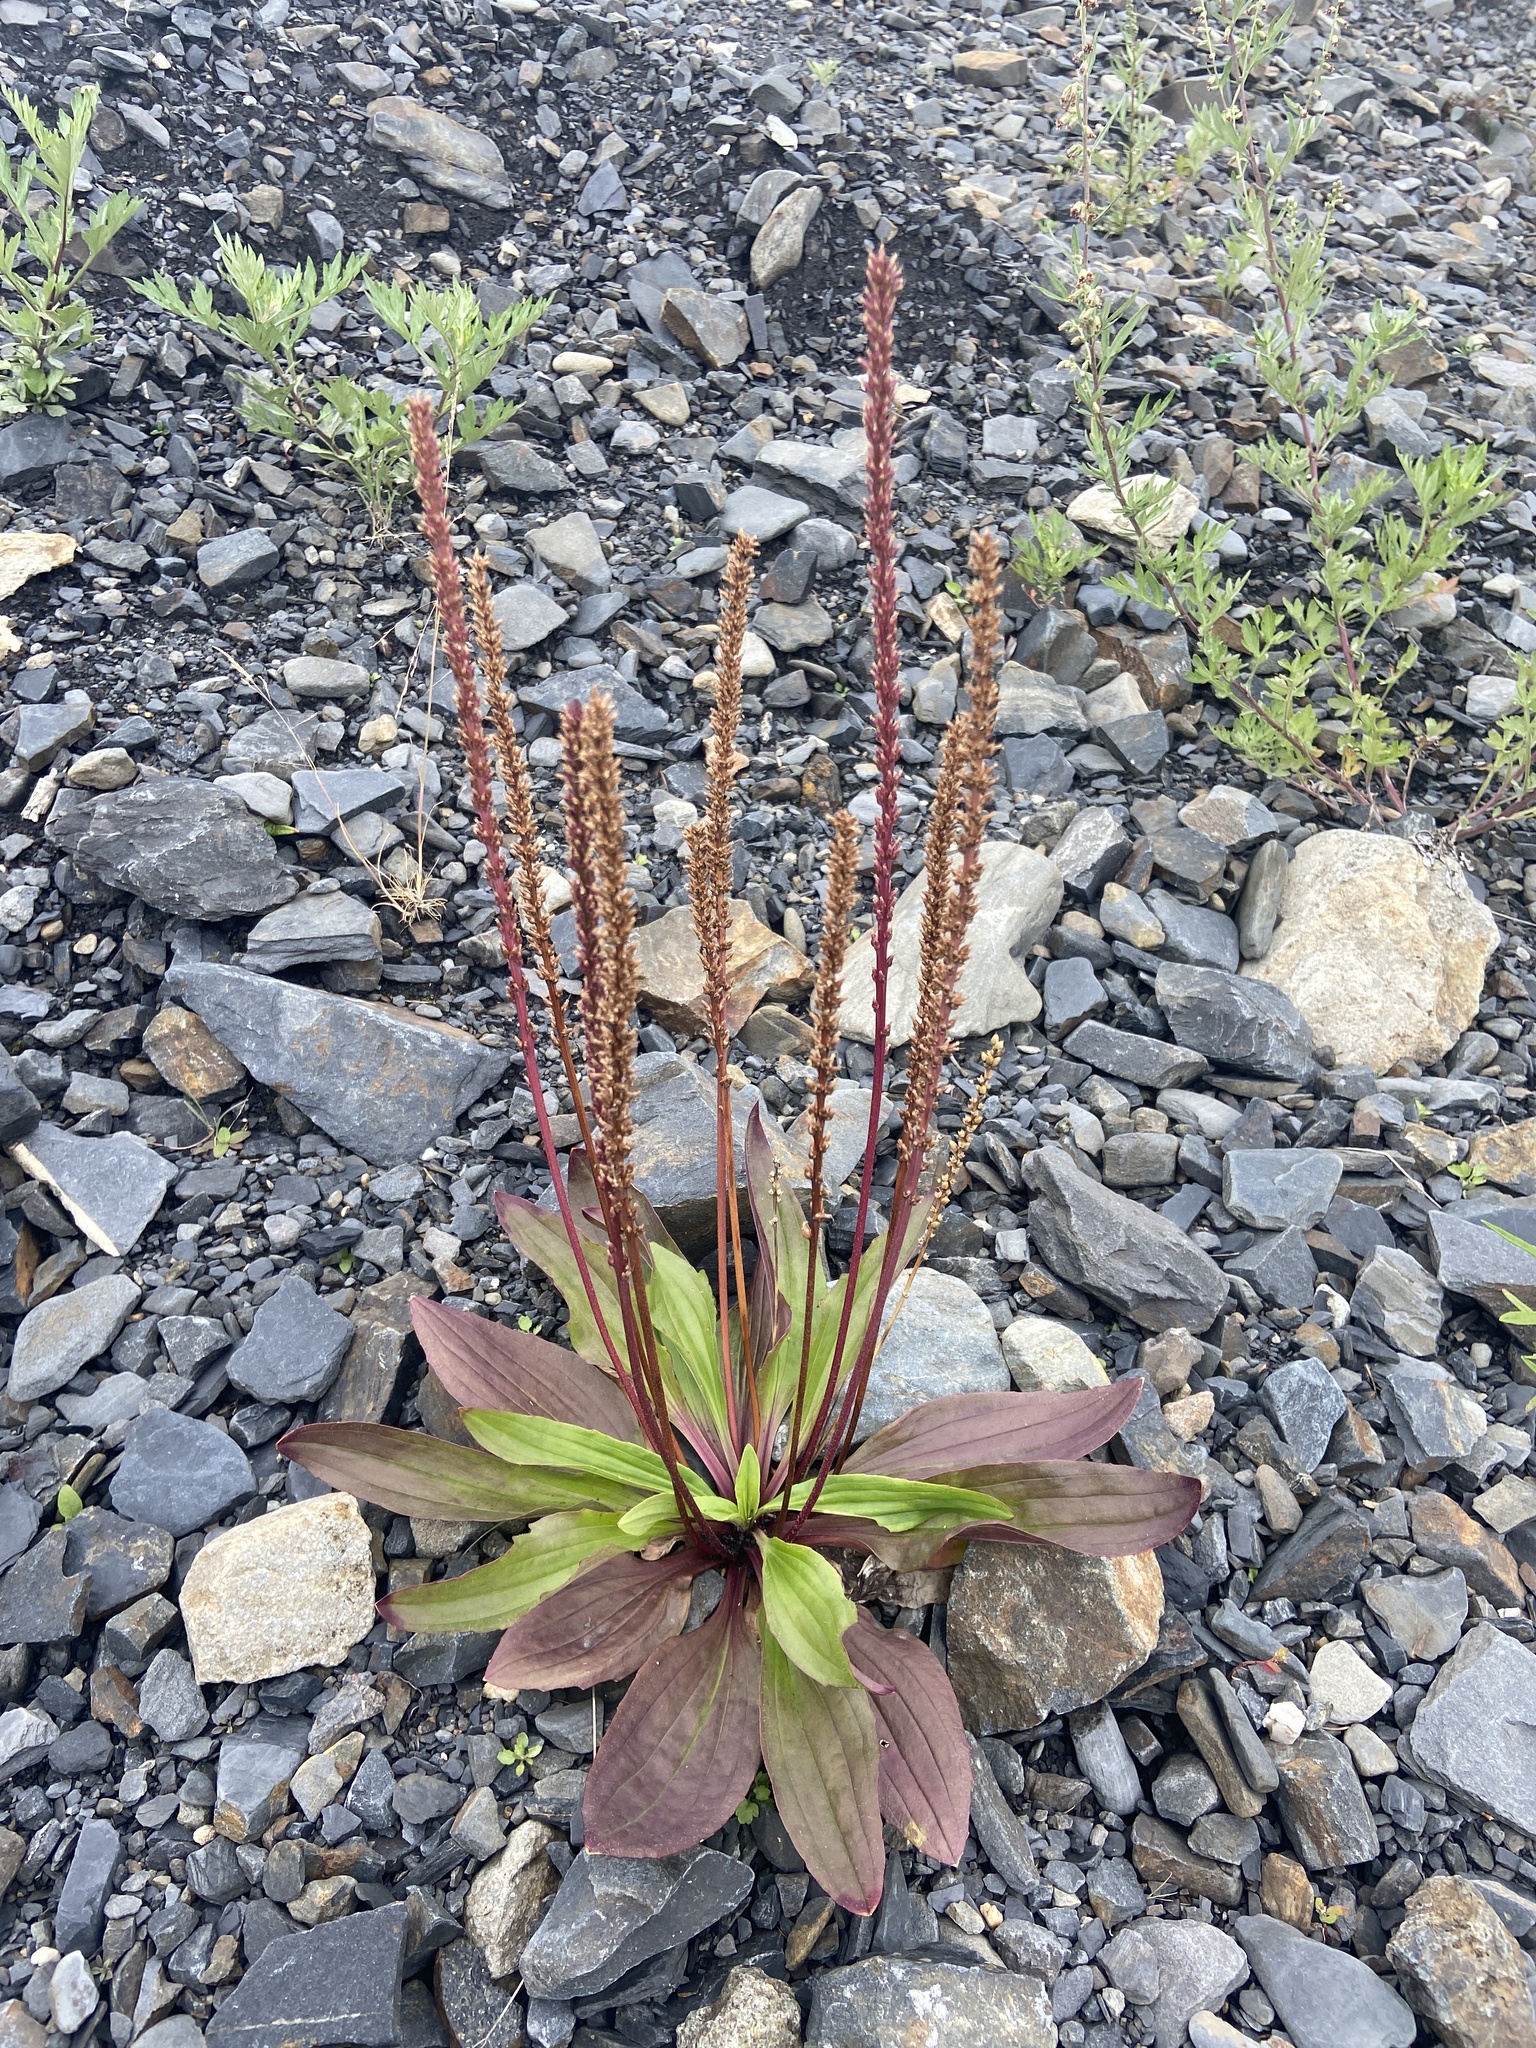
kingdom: Plantae
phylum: Tracheophyta
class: Magnoliopsida
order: Lamiales
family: Plantaginaceae
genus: Plantago
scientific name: Plantago depressa
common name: Depressed plantain
